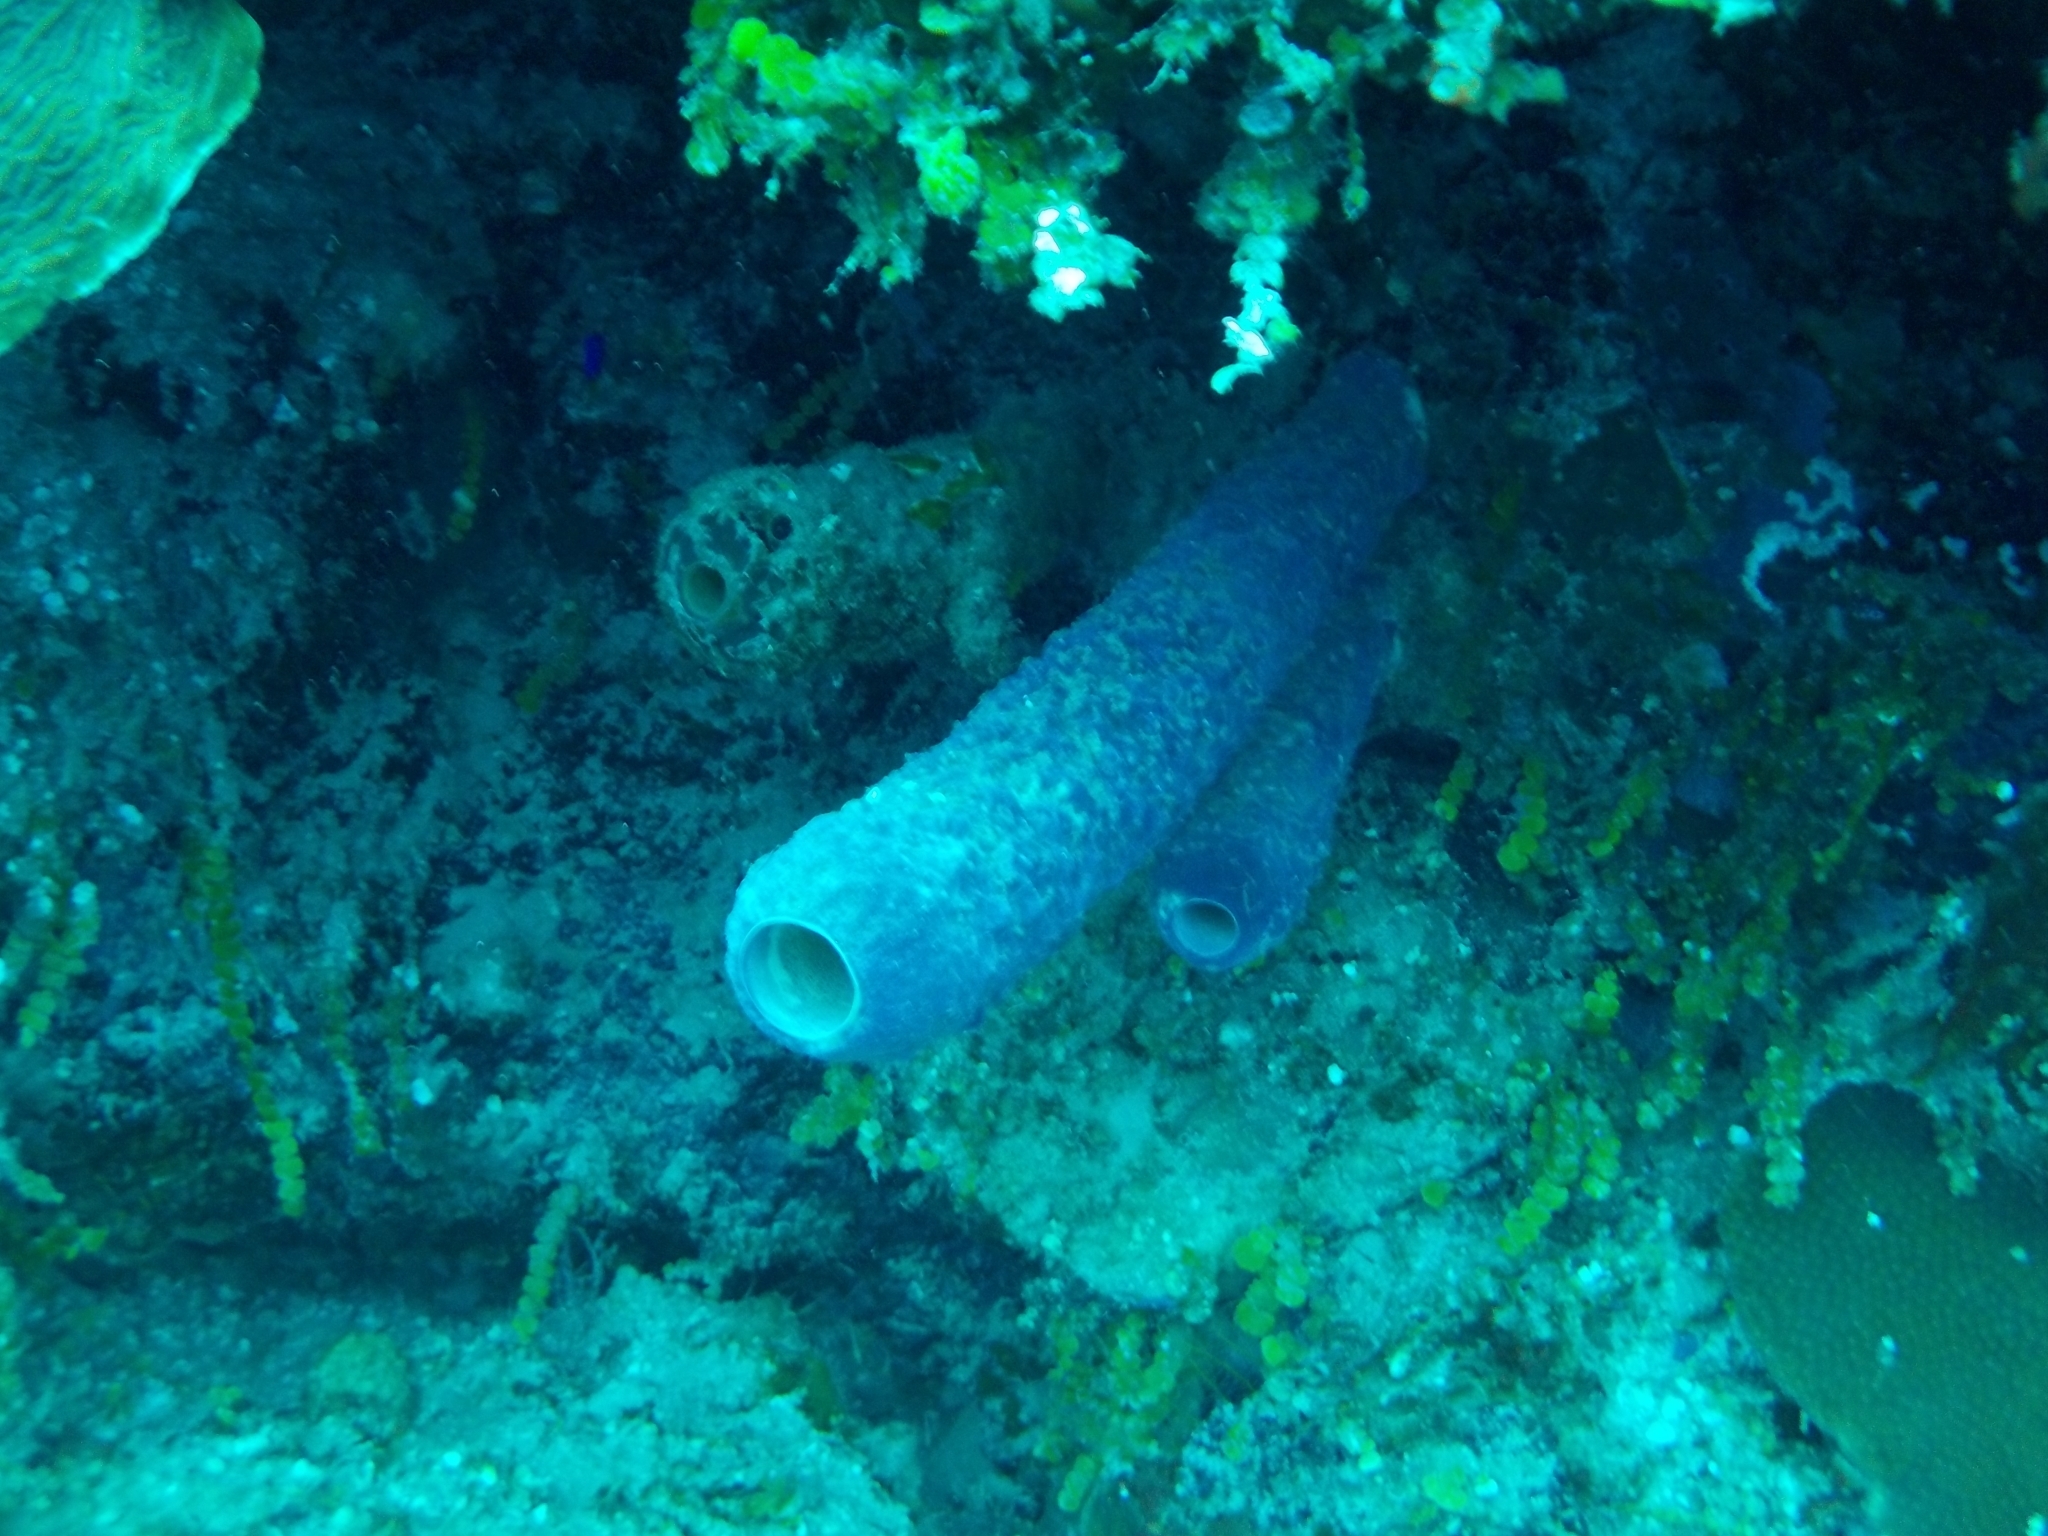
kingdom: Animalia
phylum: Porifera
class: Demospongiae
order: Verongiida
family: Aplysinidae
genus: Aplysina
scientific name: Aplysina archeri
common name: Stove-pipe sponge
